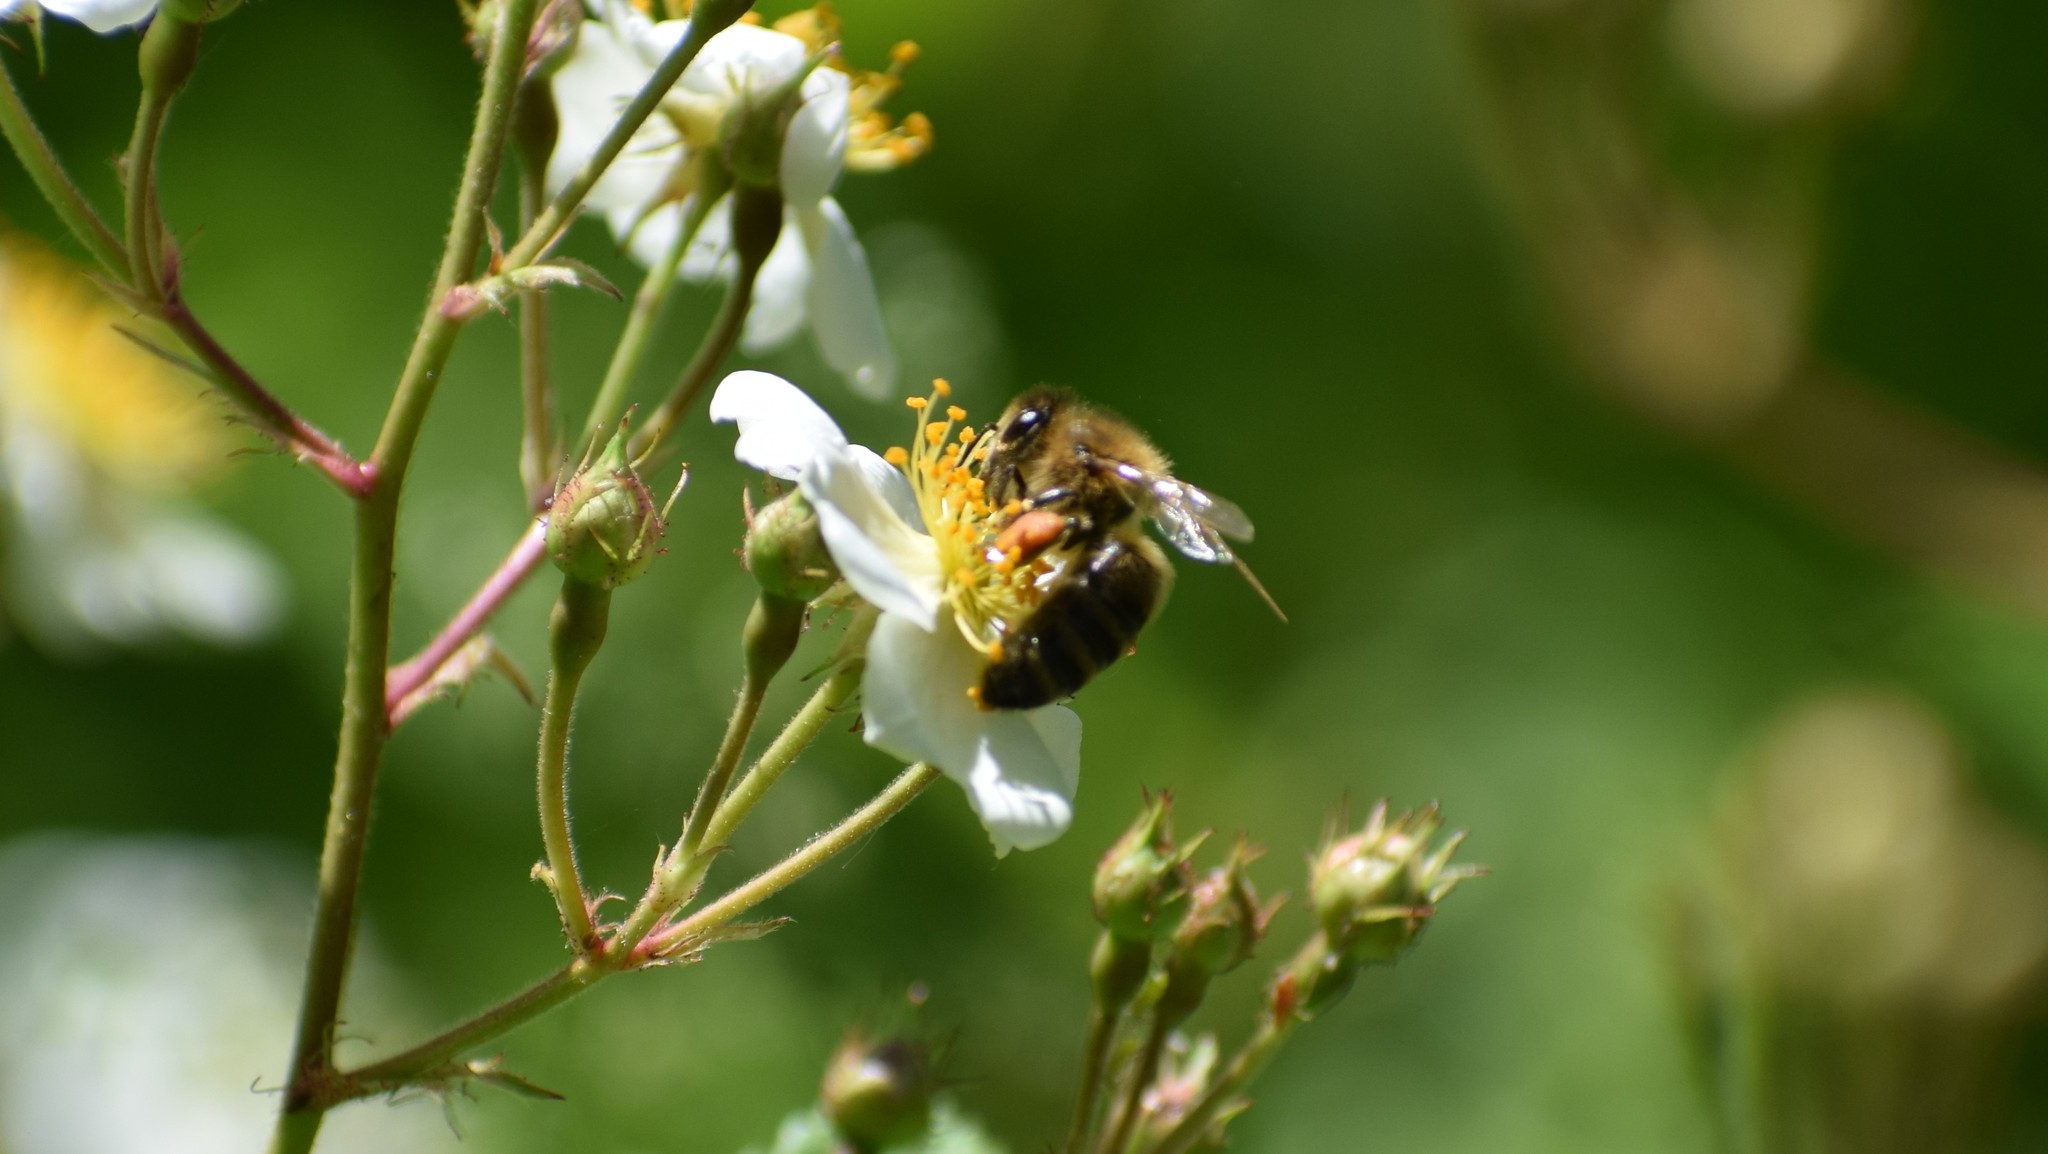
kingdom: Animalia
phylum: Arthropoda
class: Insecta
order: Hymenoptera
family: Apidae
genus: Apis
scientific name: Apis mellifera
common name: Honey bee
